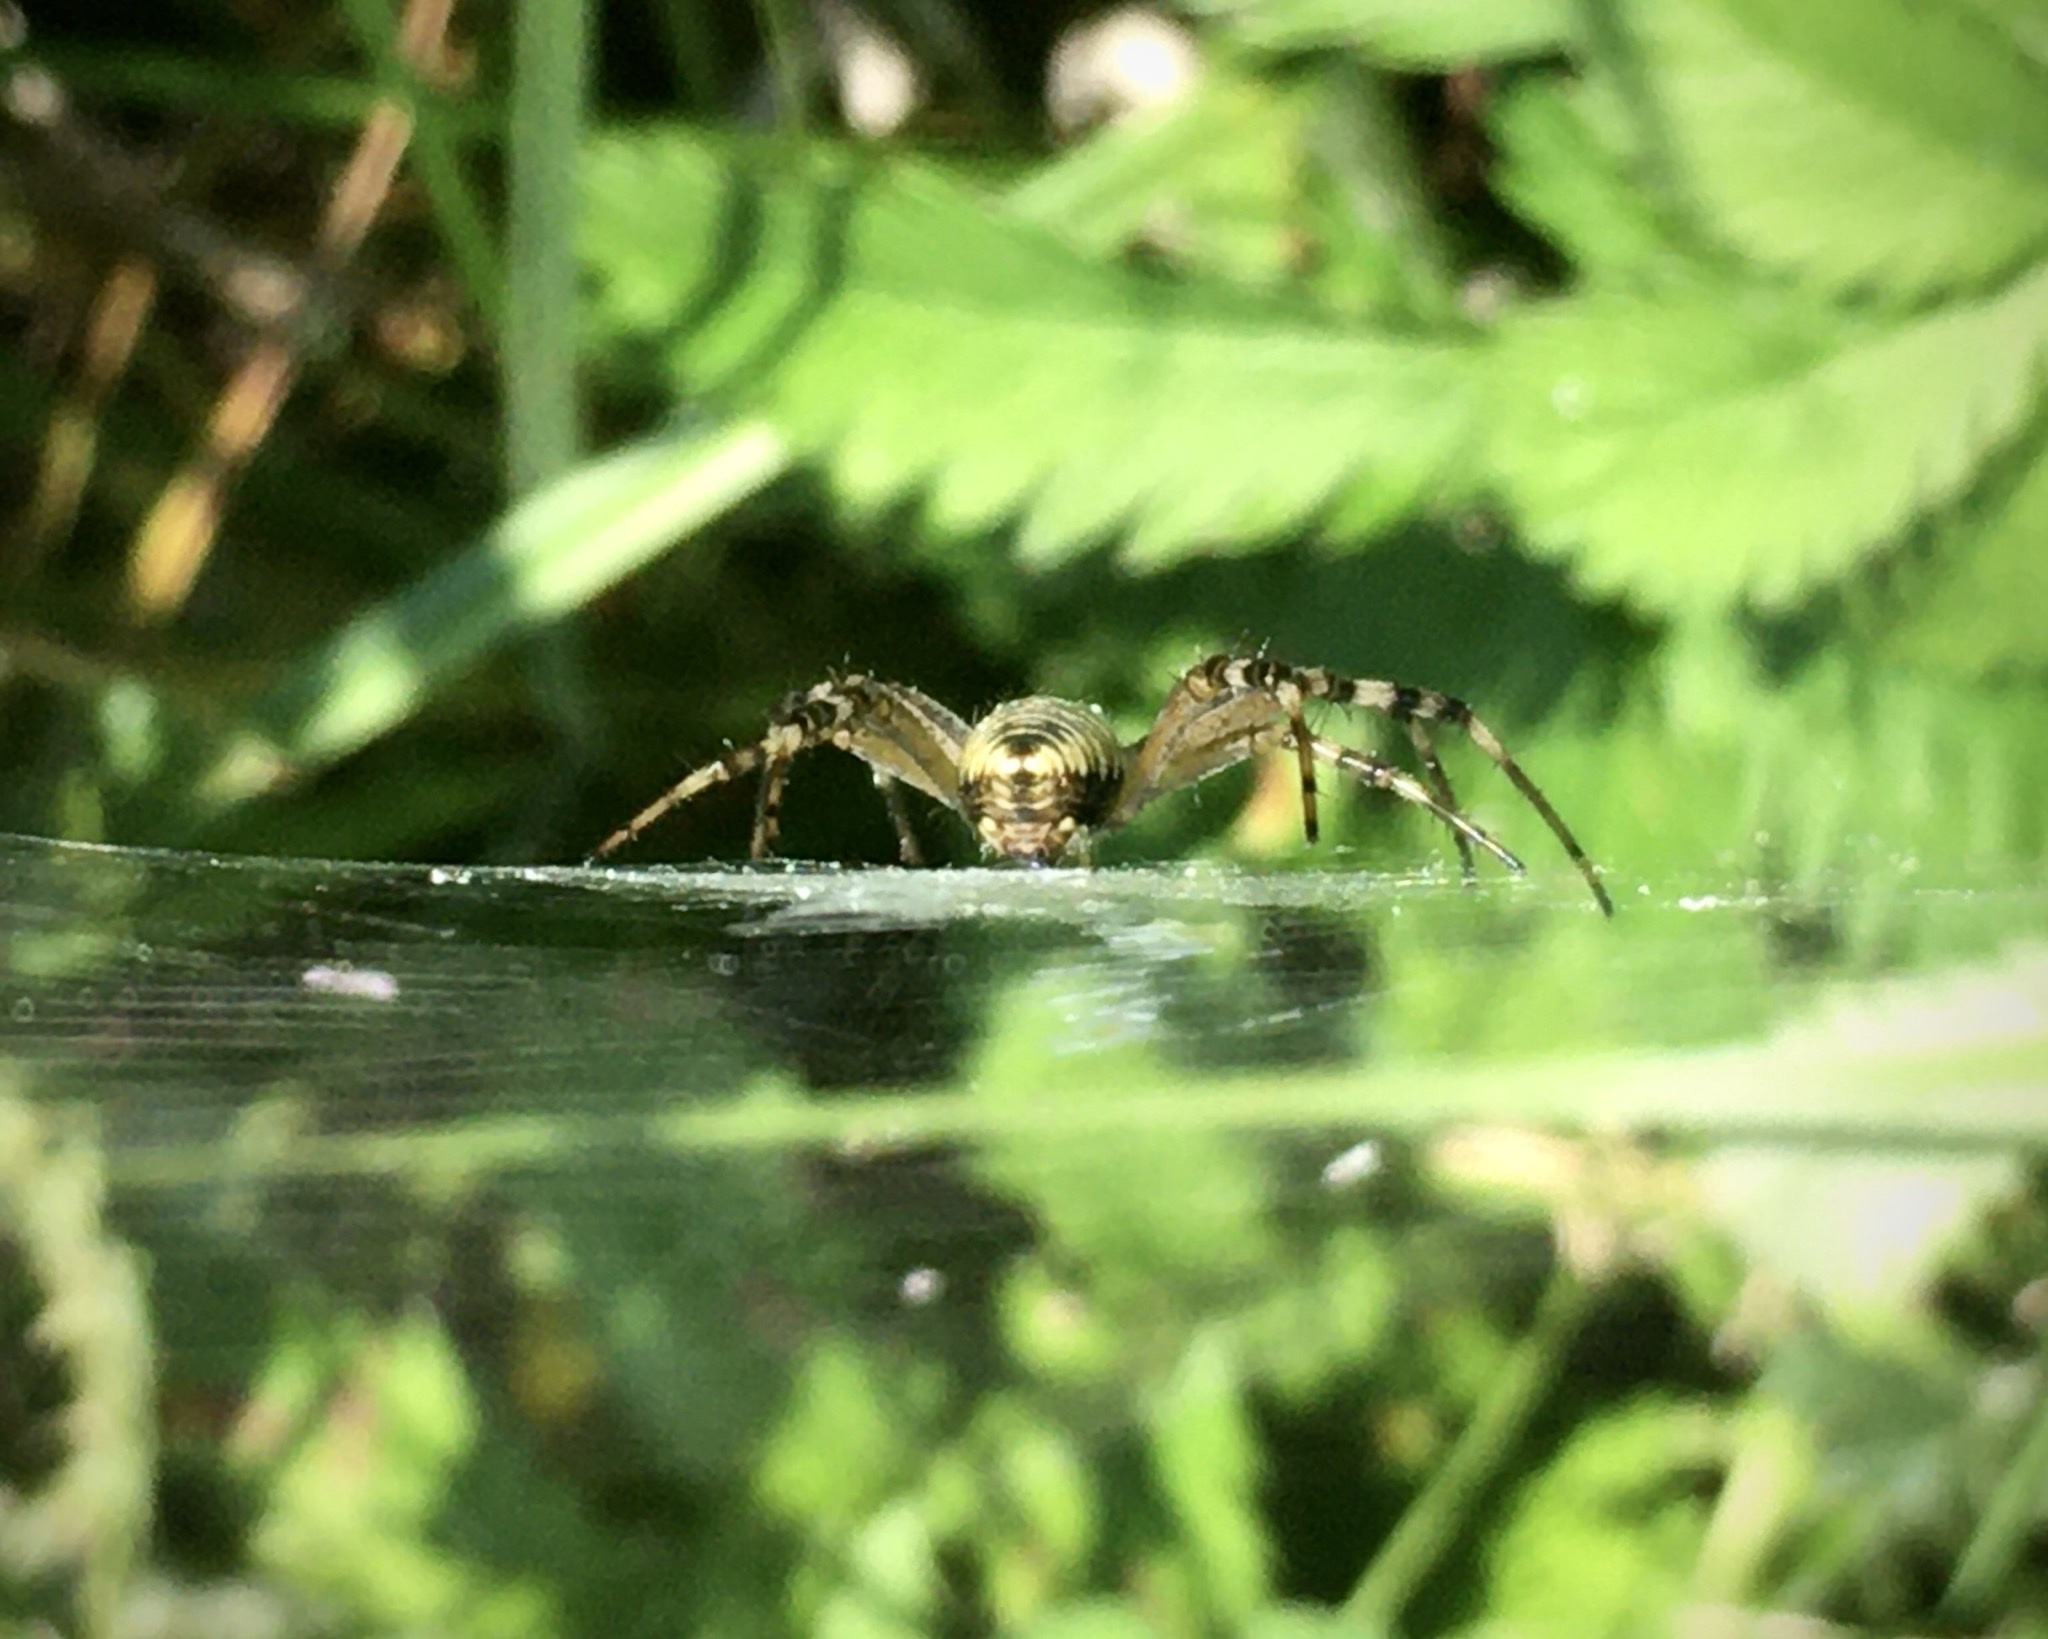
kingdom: Animalia
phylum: Arthropoda
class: Arachnida
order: Araneae
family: Araneidae
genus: Argiope
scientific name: Argiope bruennichi
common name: Wasp spider
